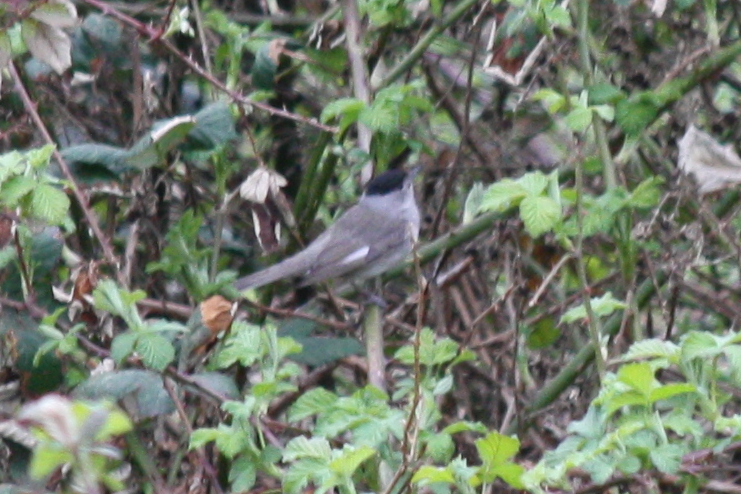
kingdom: Animalia
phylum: Chordata
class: Aves
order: Passeriformes
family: Sylviidae
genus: Sylvia
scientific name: Sylvia atricapilla
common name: Eurasian blackcap
